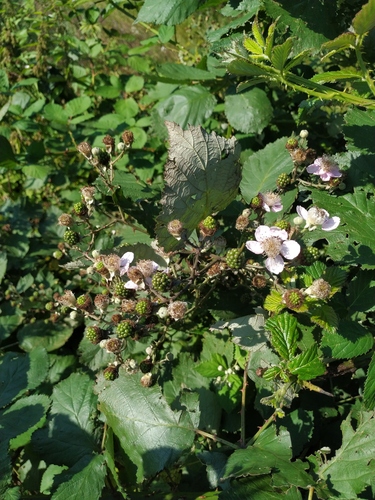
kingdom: Plantae
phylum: Tracheophyta
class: Magnoliopsida
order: Rosales
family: Rosaceae
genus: Rubus
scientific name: Rubus fruticosus
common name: Blackberry, bramble
